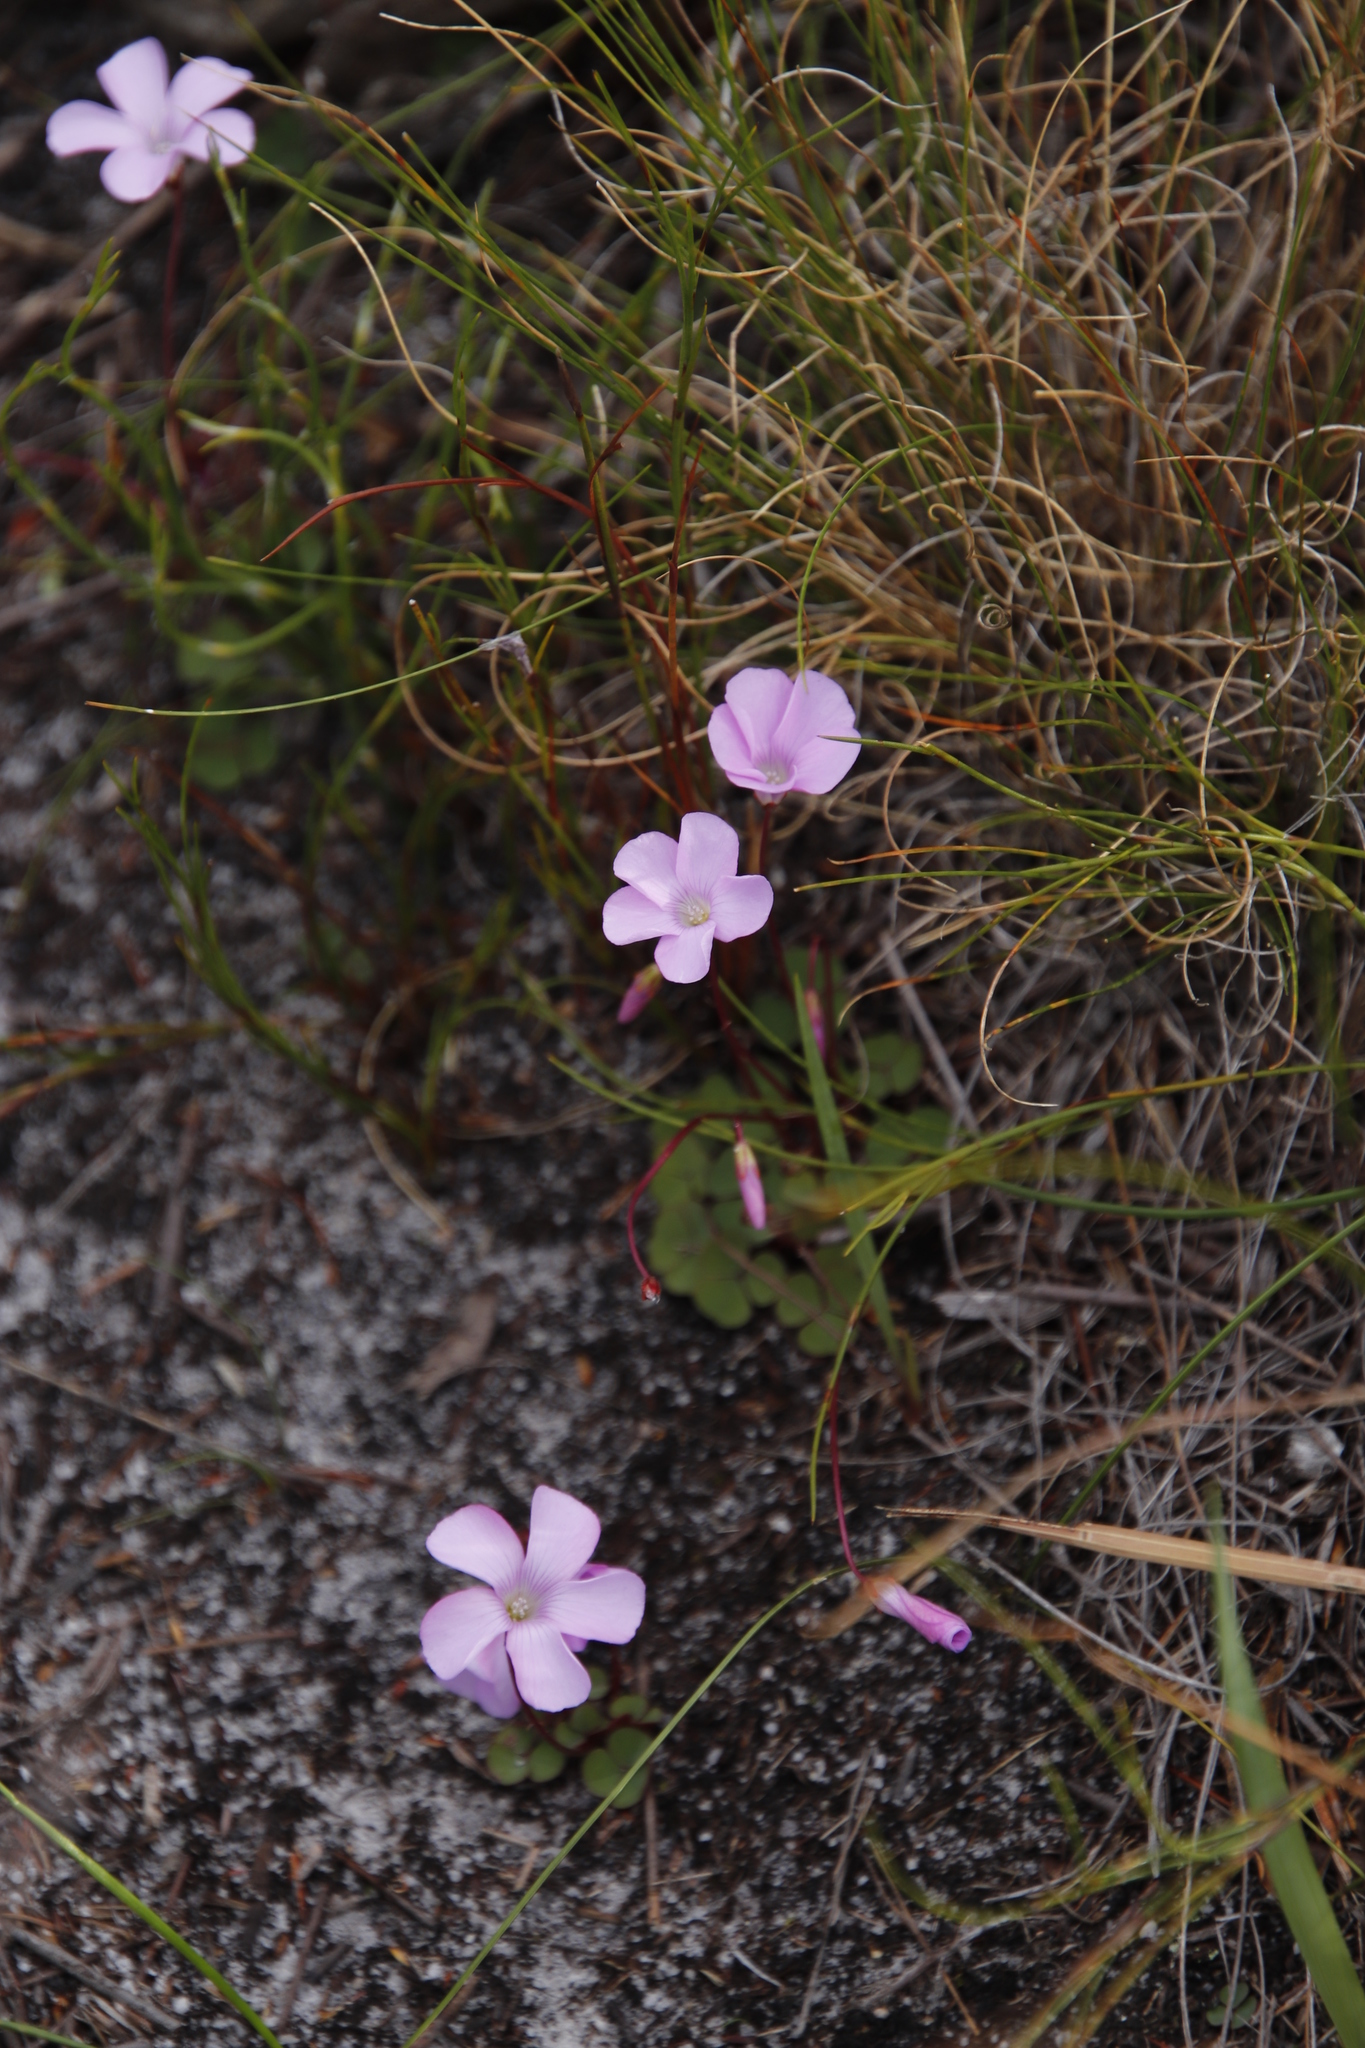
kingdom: Plantae
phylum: Tracheophyta
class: Magnoliopsida
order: Oxalidales
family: Oxalidaceae
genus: Oxalis
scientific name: Oxalis commutata
